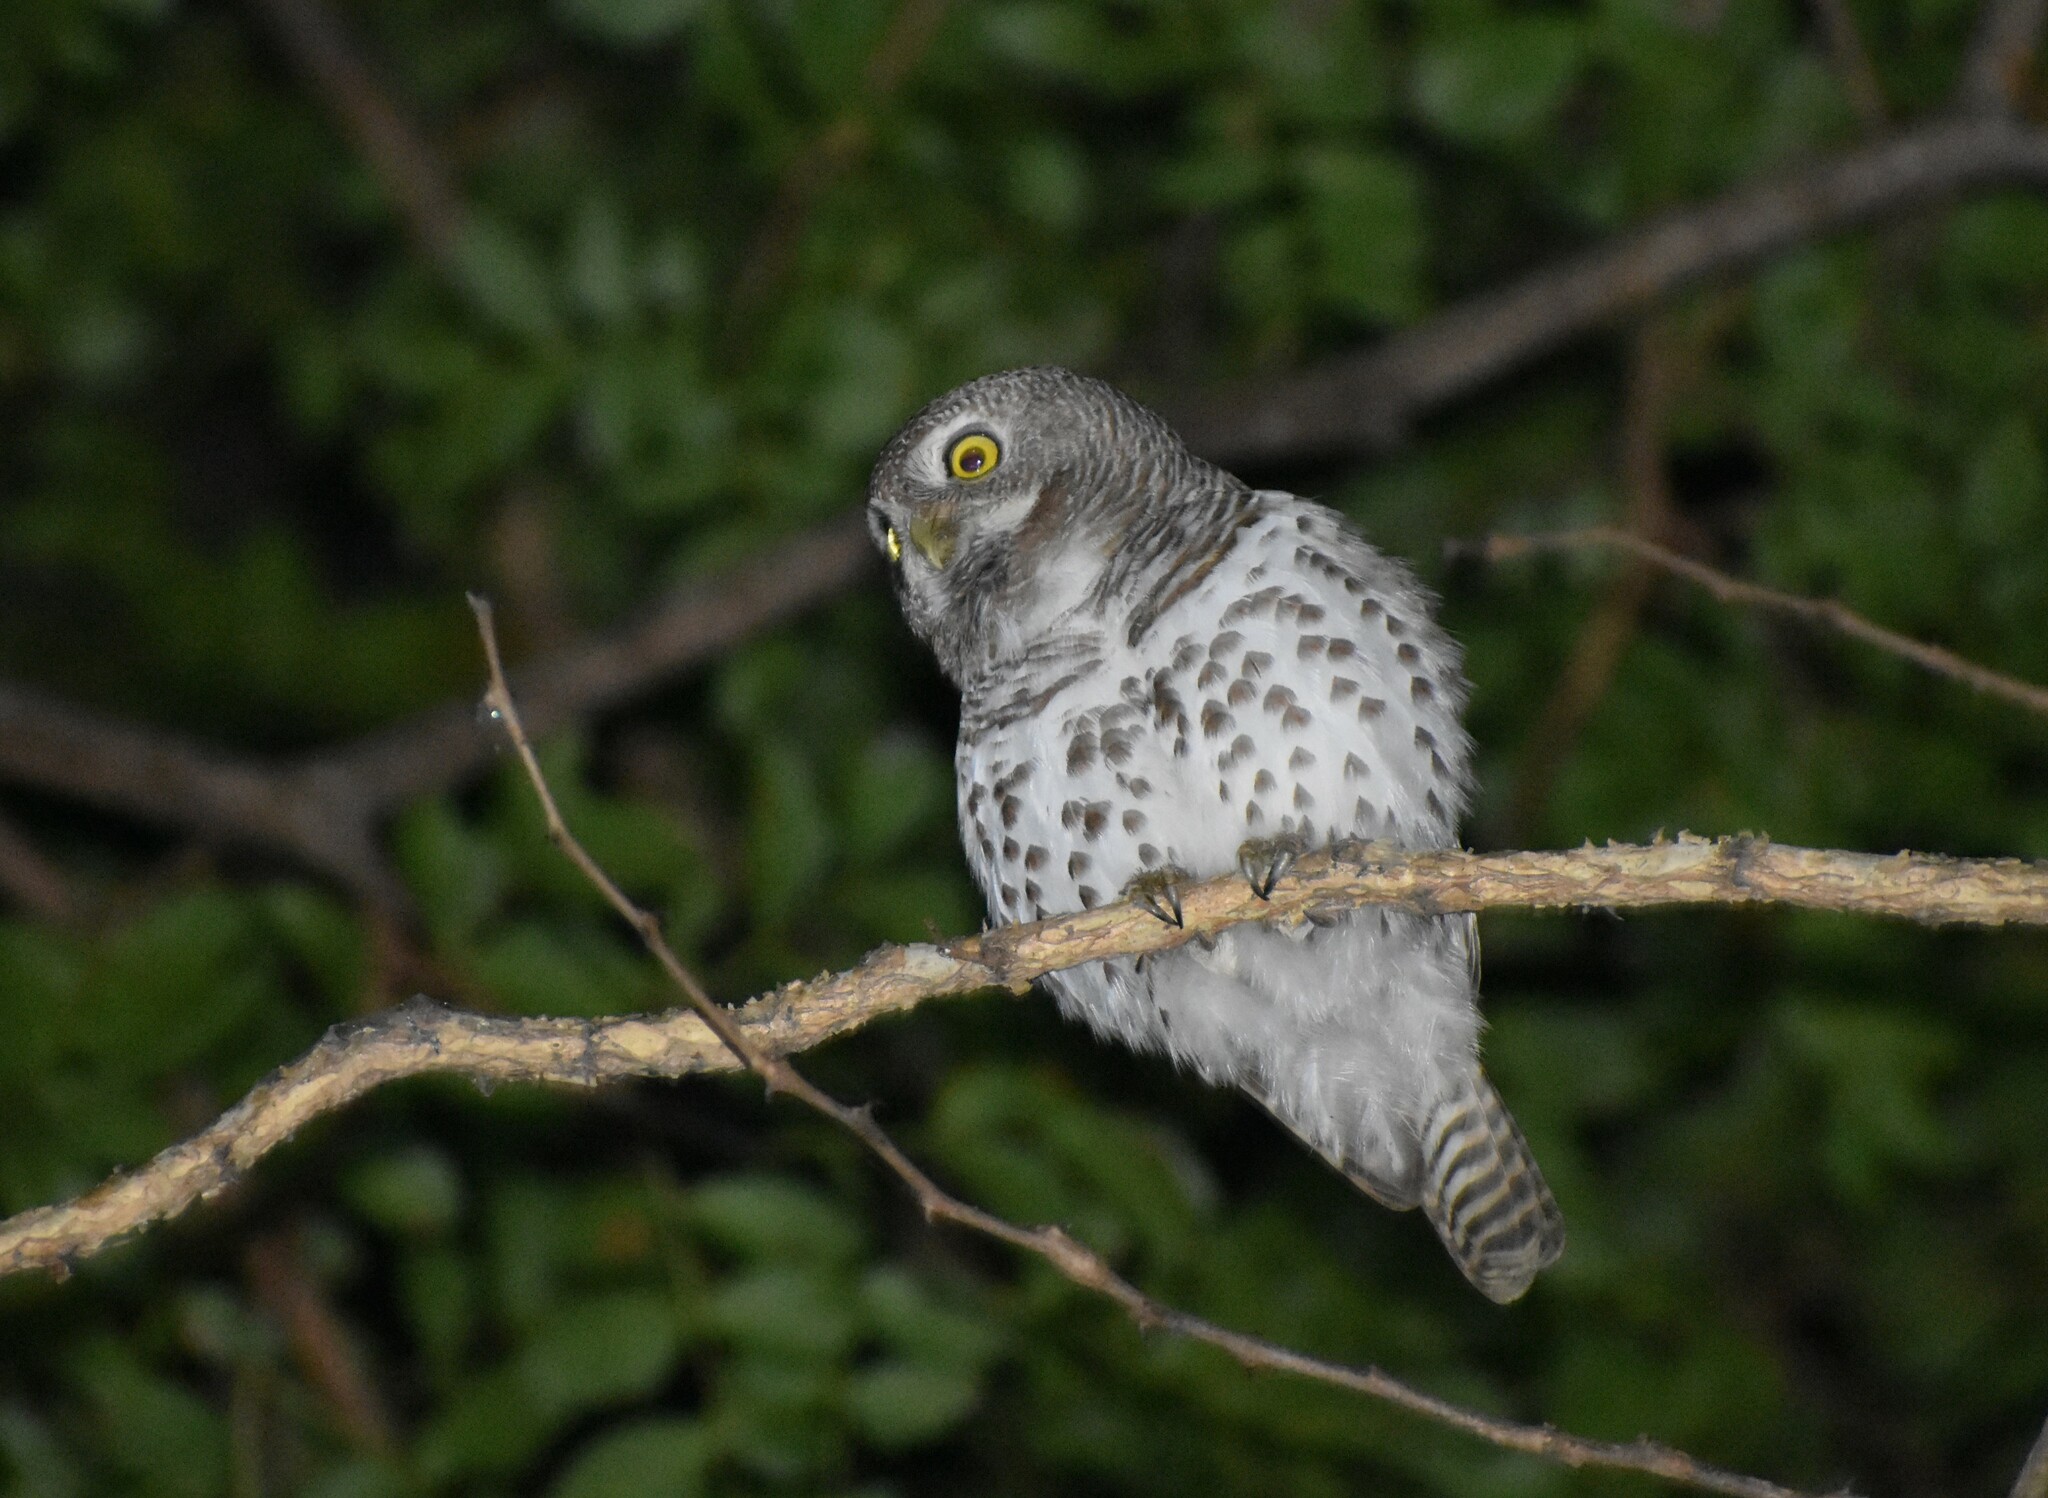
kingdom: Animalia
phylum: Chordata
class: Aves
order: Strigiformes
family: Strigidae
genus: Glaucidium
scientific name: Glaucidium capense
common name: African barred owlet
